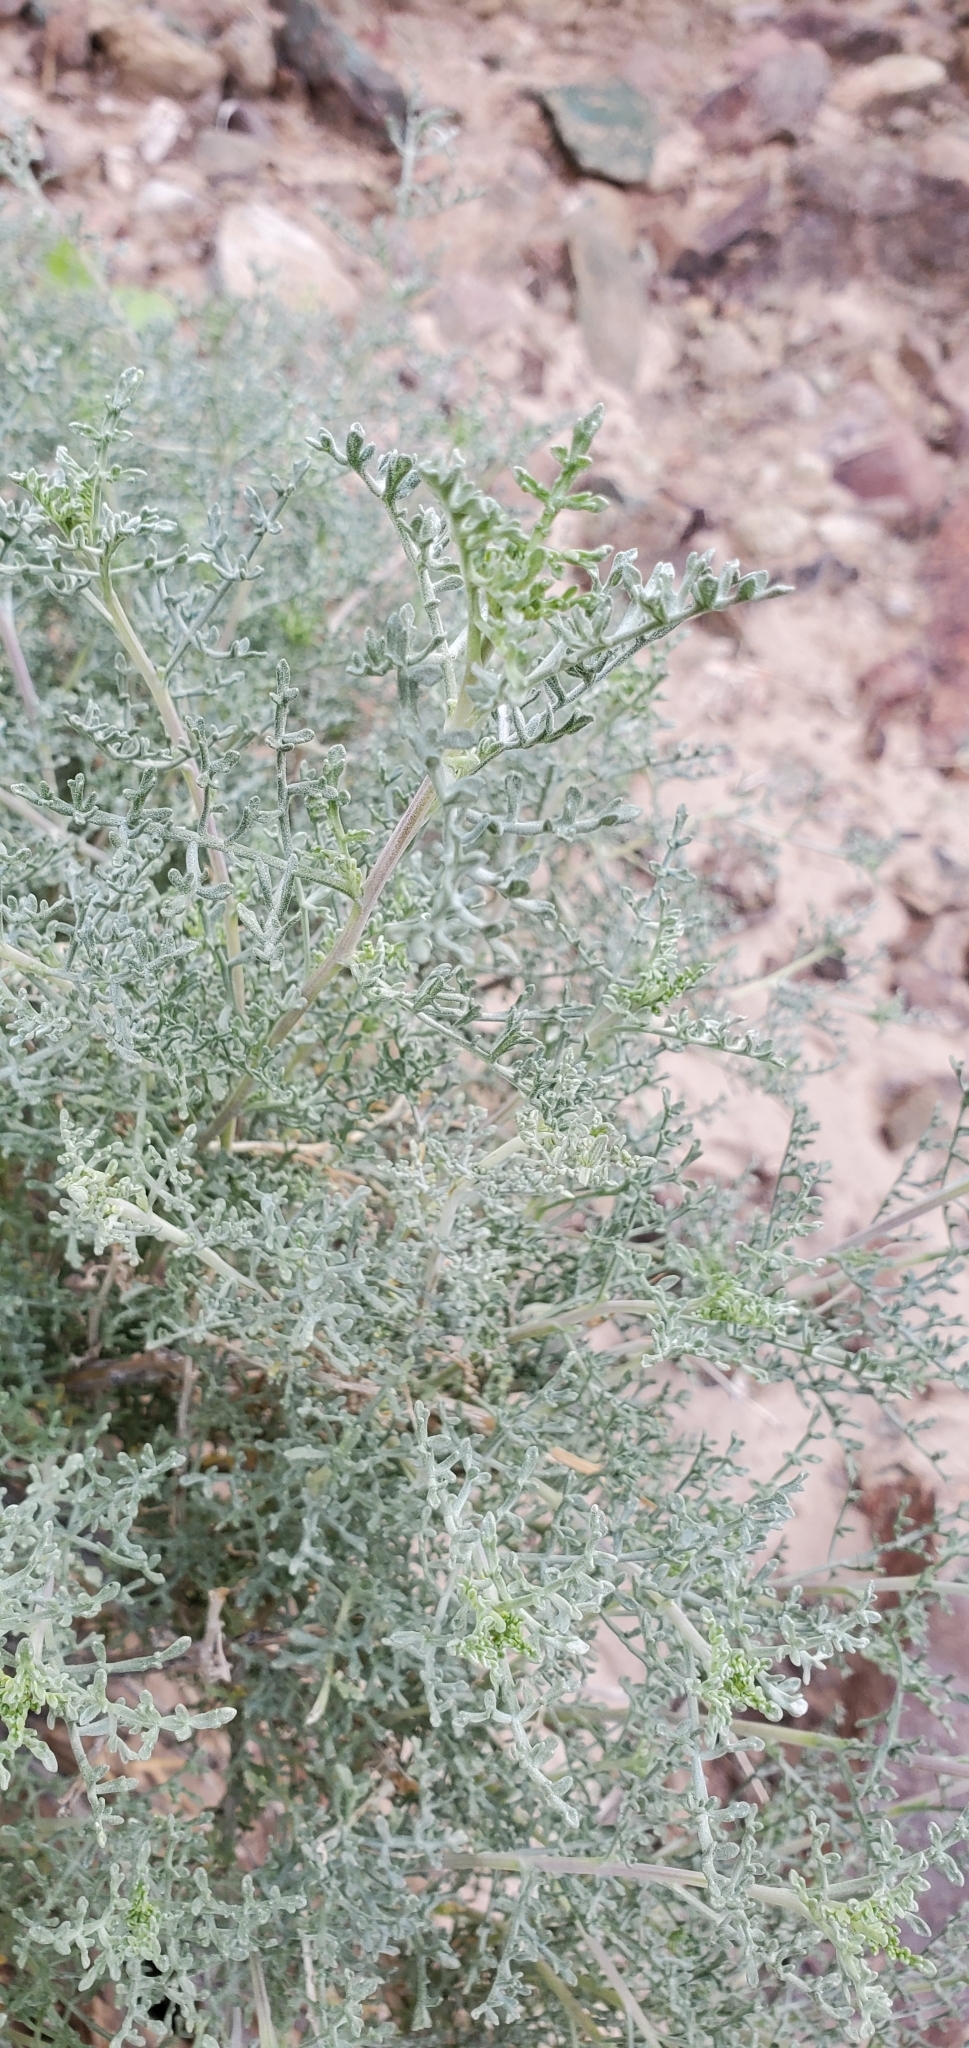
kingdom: Plantae
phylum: Tracheophyta
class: Magnoliopsida
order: Asterales
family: Asteraceae
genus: Ambrosia
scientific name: Ambrosia dumosa
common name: Bur-sage
